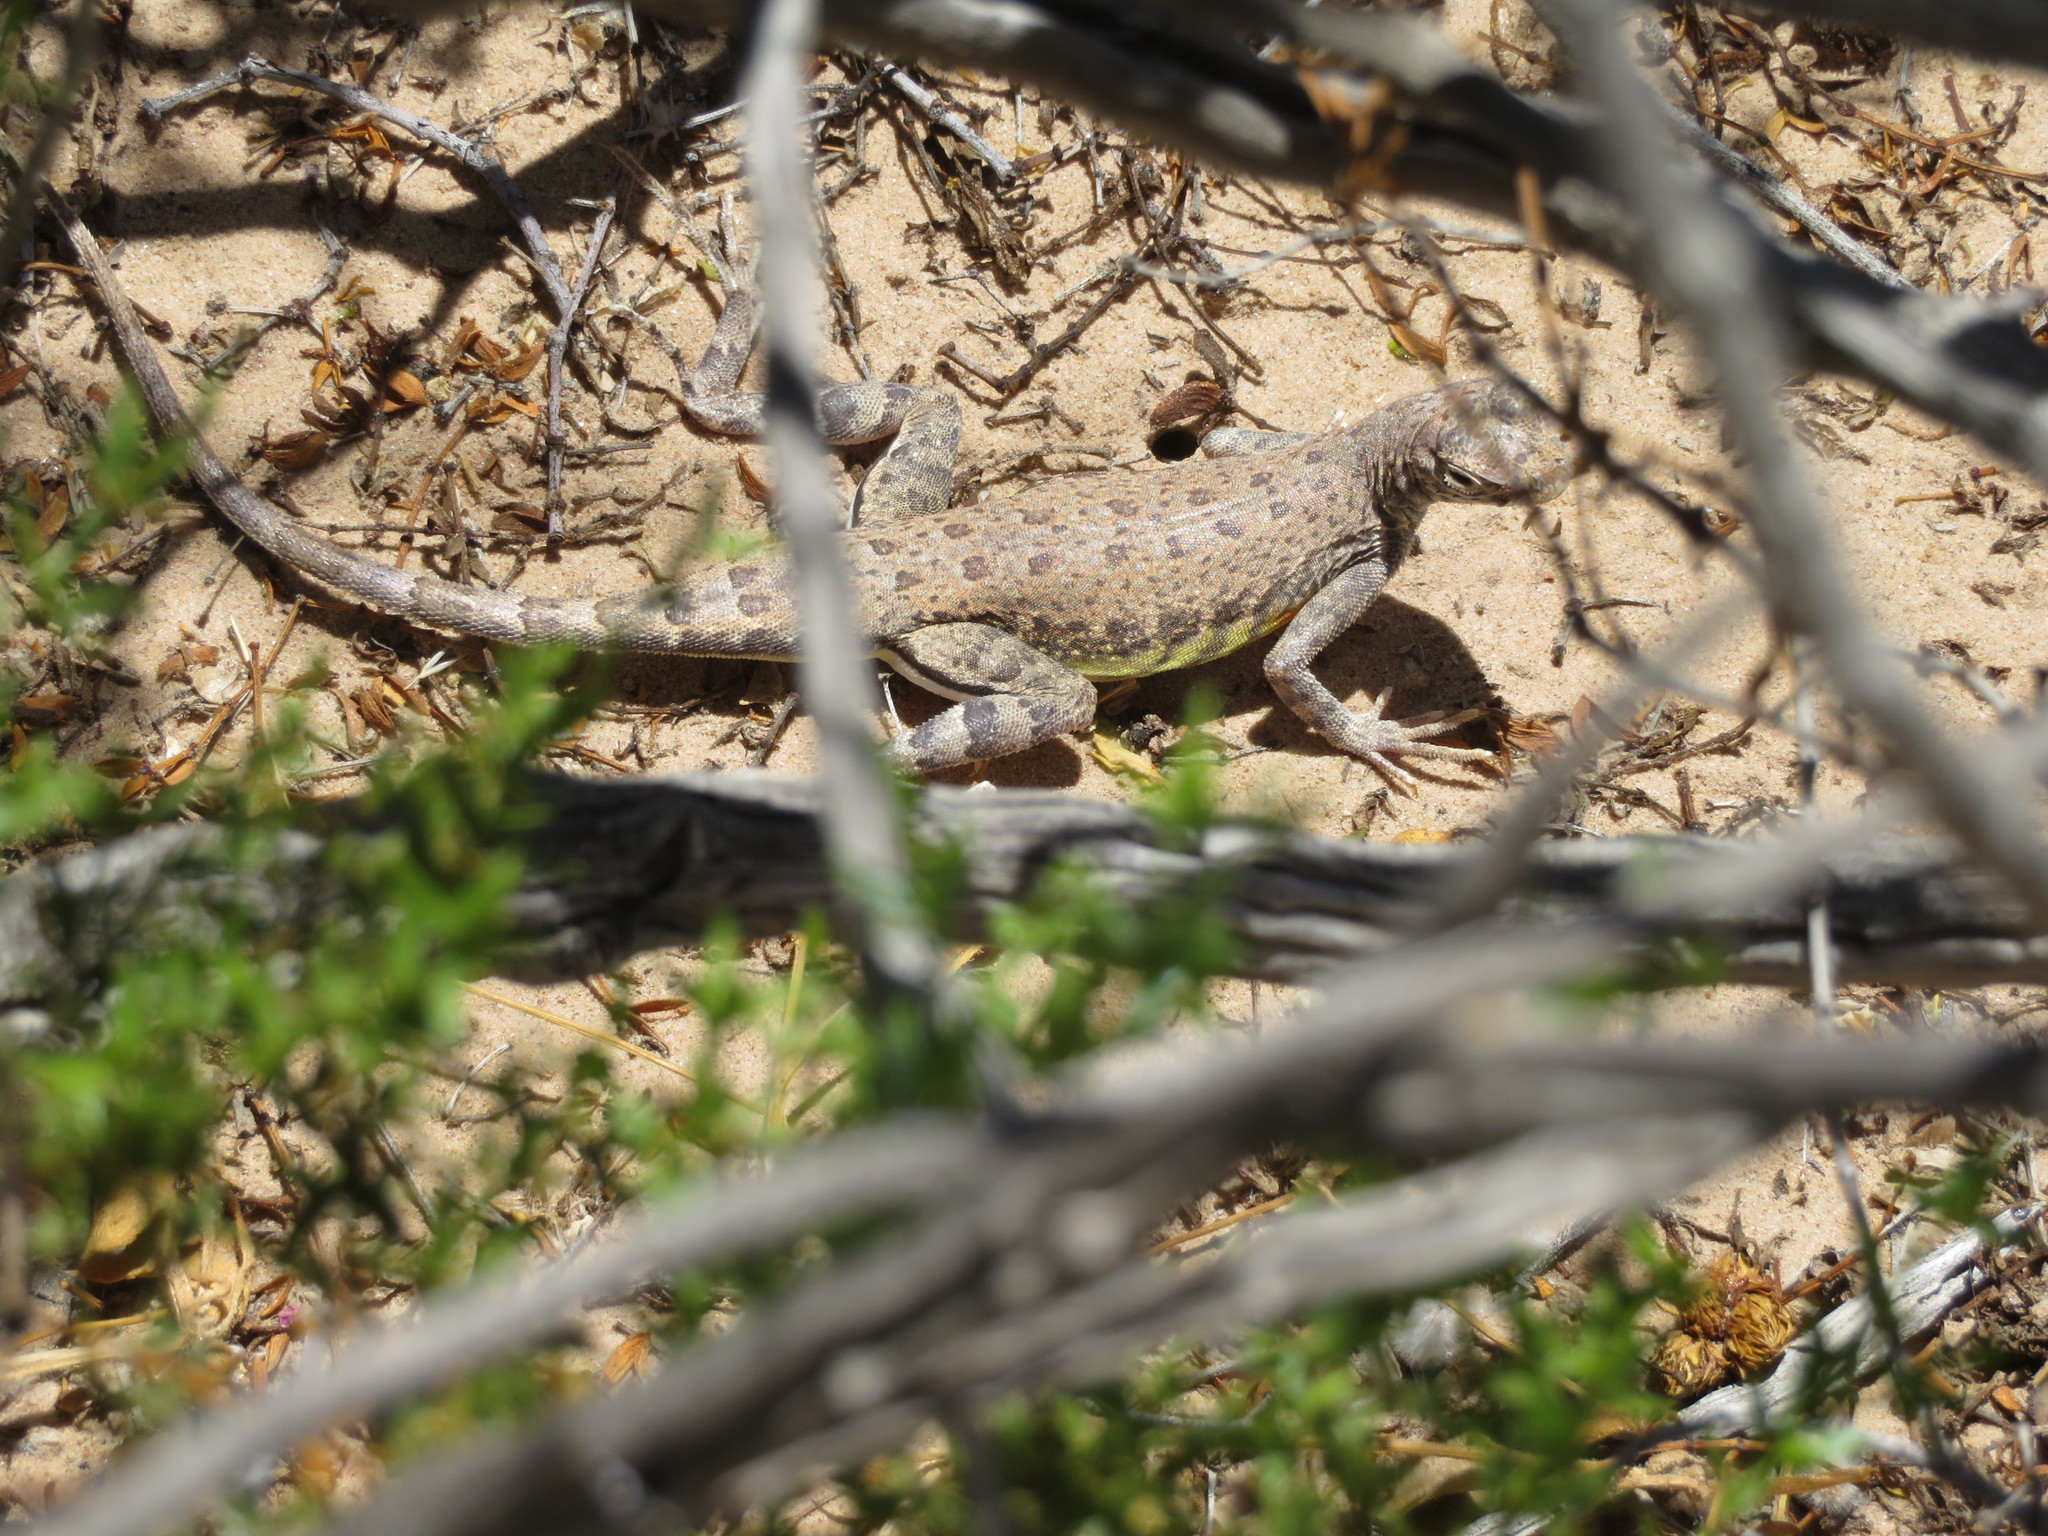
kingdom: Animalia
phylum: Chordata
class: Squamata
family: Phrynosomatidae
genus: Callisaurus
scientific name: Callisaurus draconoides
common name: Zebra-tailed lizard
